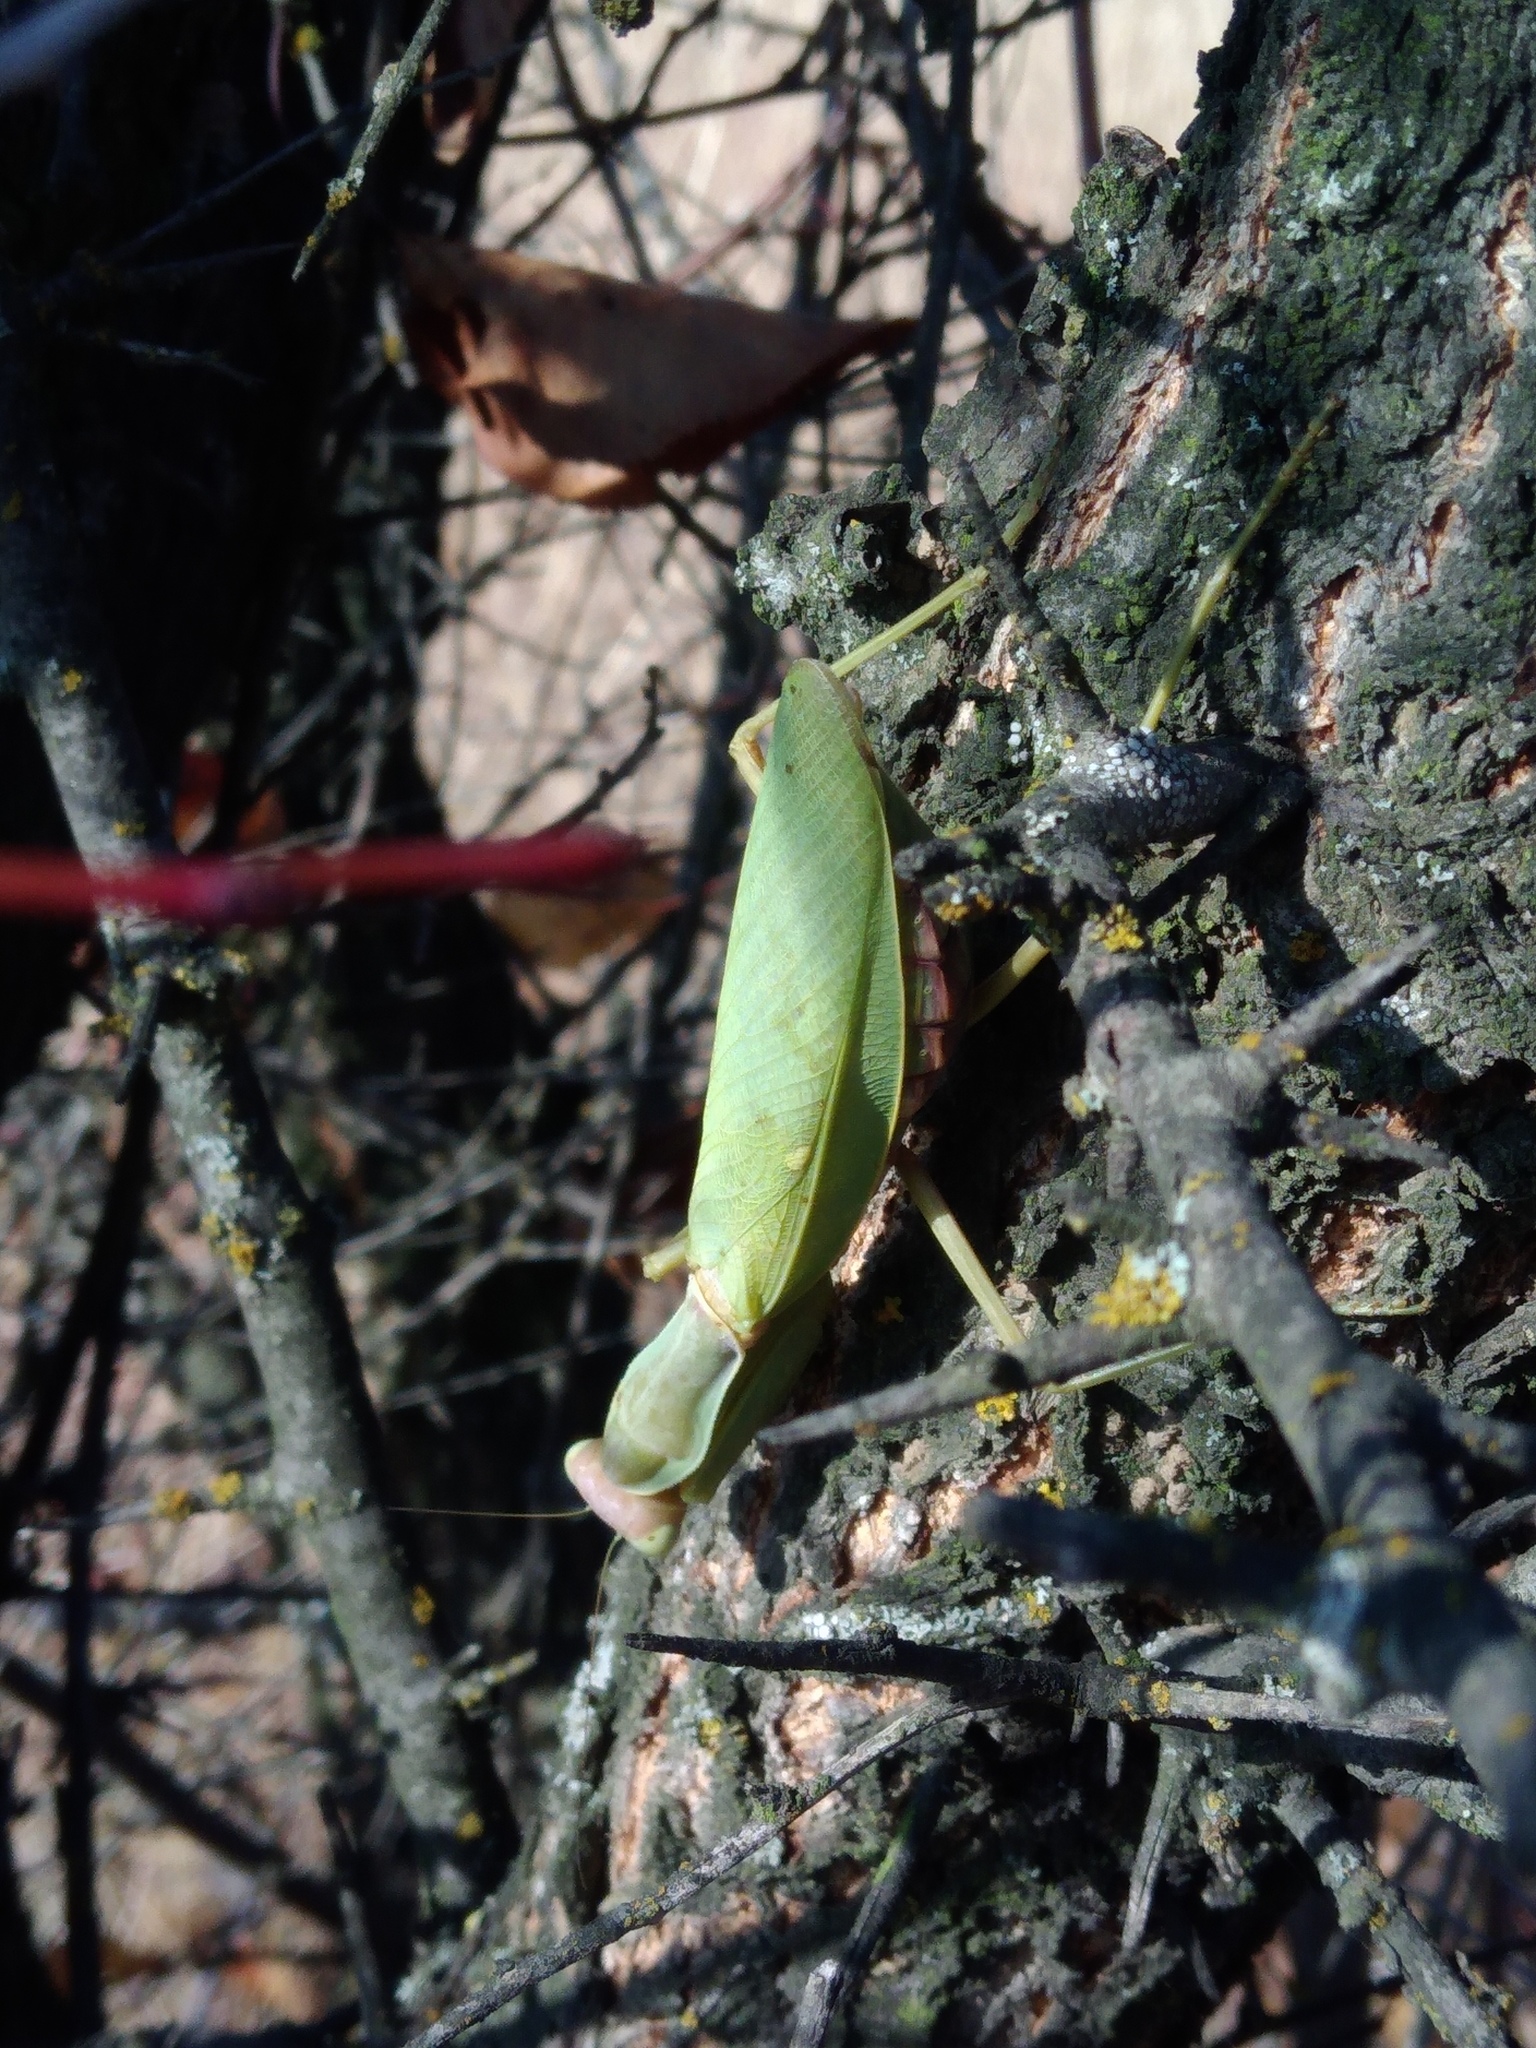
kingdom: Animalia
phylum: Arthropoda
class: Insecta
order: Mantodea
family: Mantidae
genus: Hierodula
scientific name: Hierodula transcaucasica
